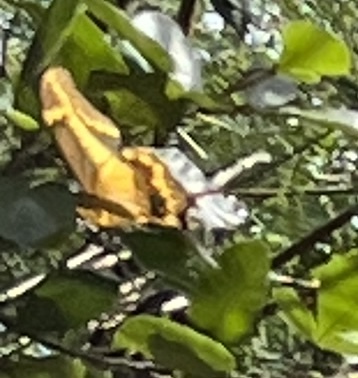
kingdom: Animalia
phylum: Arthropoda
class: Insecta
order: Lepidoptera
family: Papilionidae
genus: Papilio
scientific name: Papilio aristodemus
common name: Schaus' swallowtail
